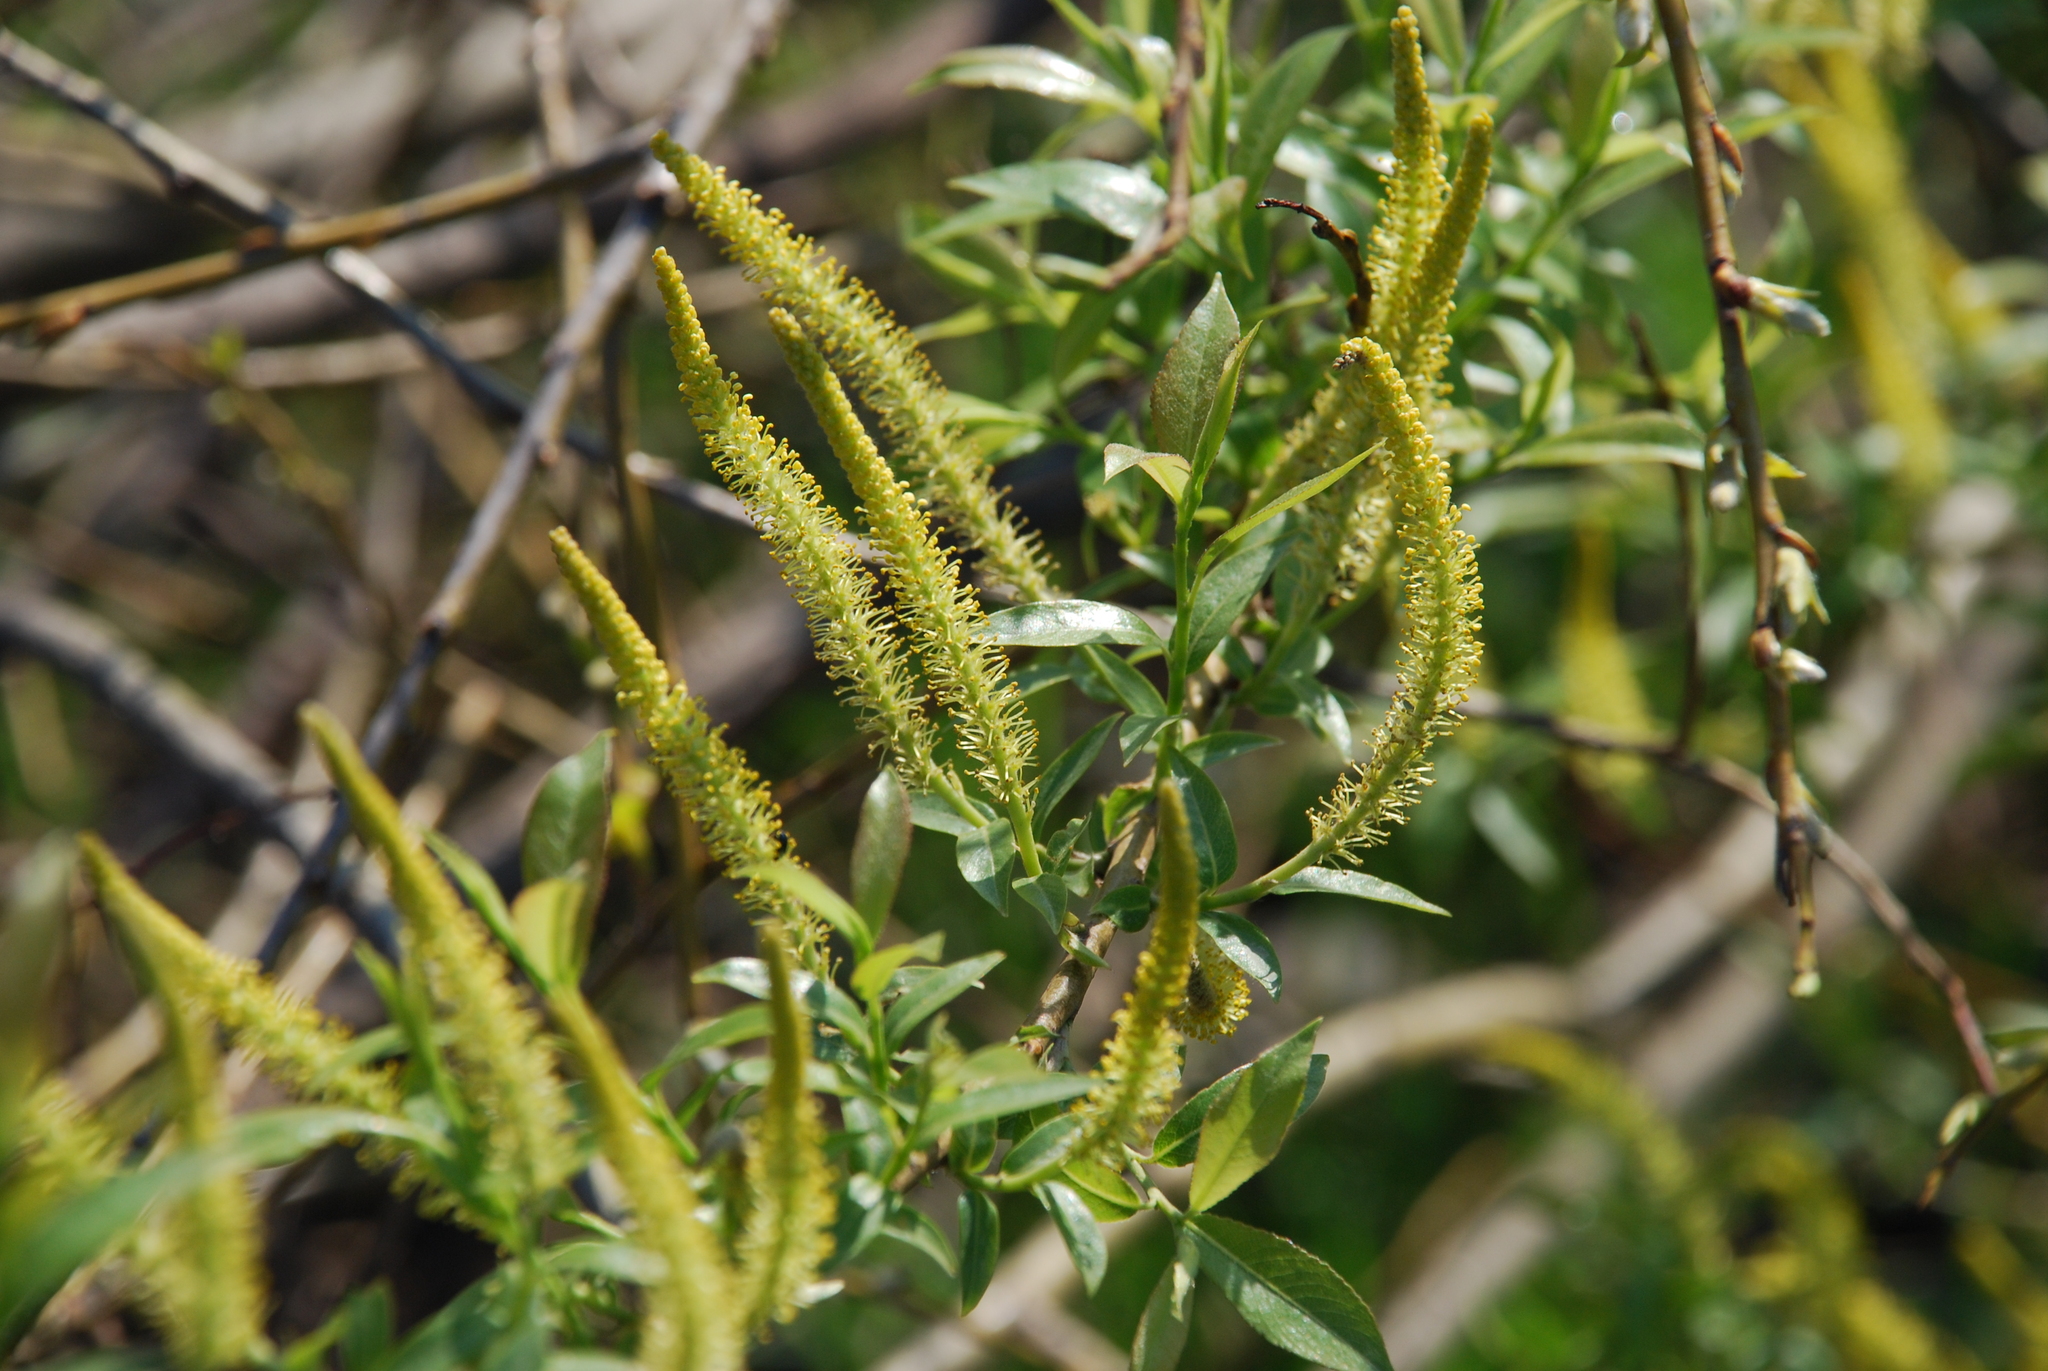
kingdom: Plantae
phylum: Tracheophyta
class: Magnoliopsida
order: Malpighiales
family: Salicaceae
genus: Salix
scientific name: Salix triandra
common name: Almond willow
